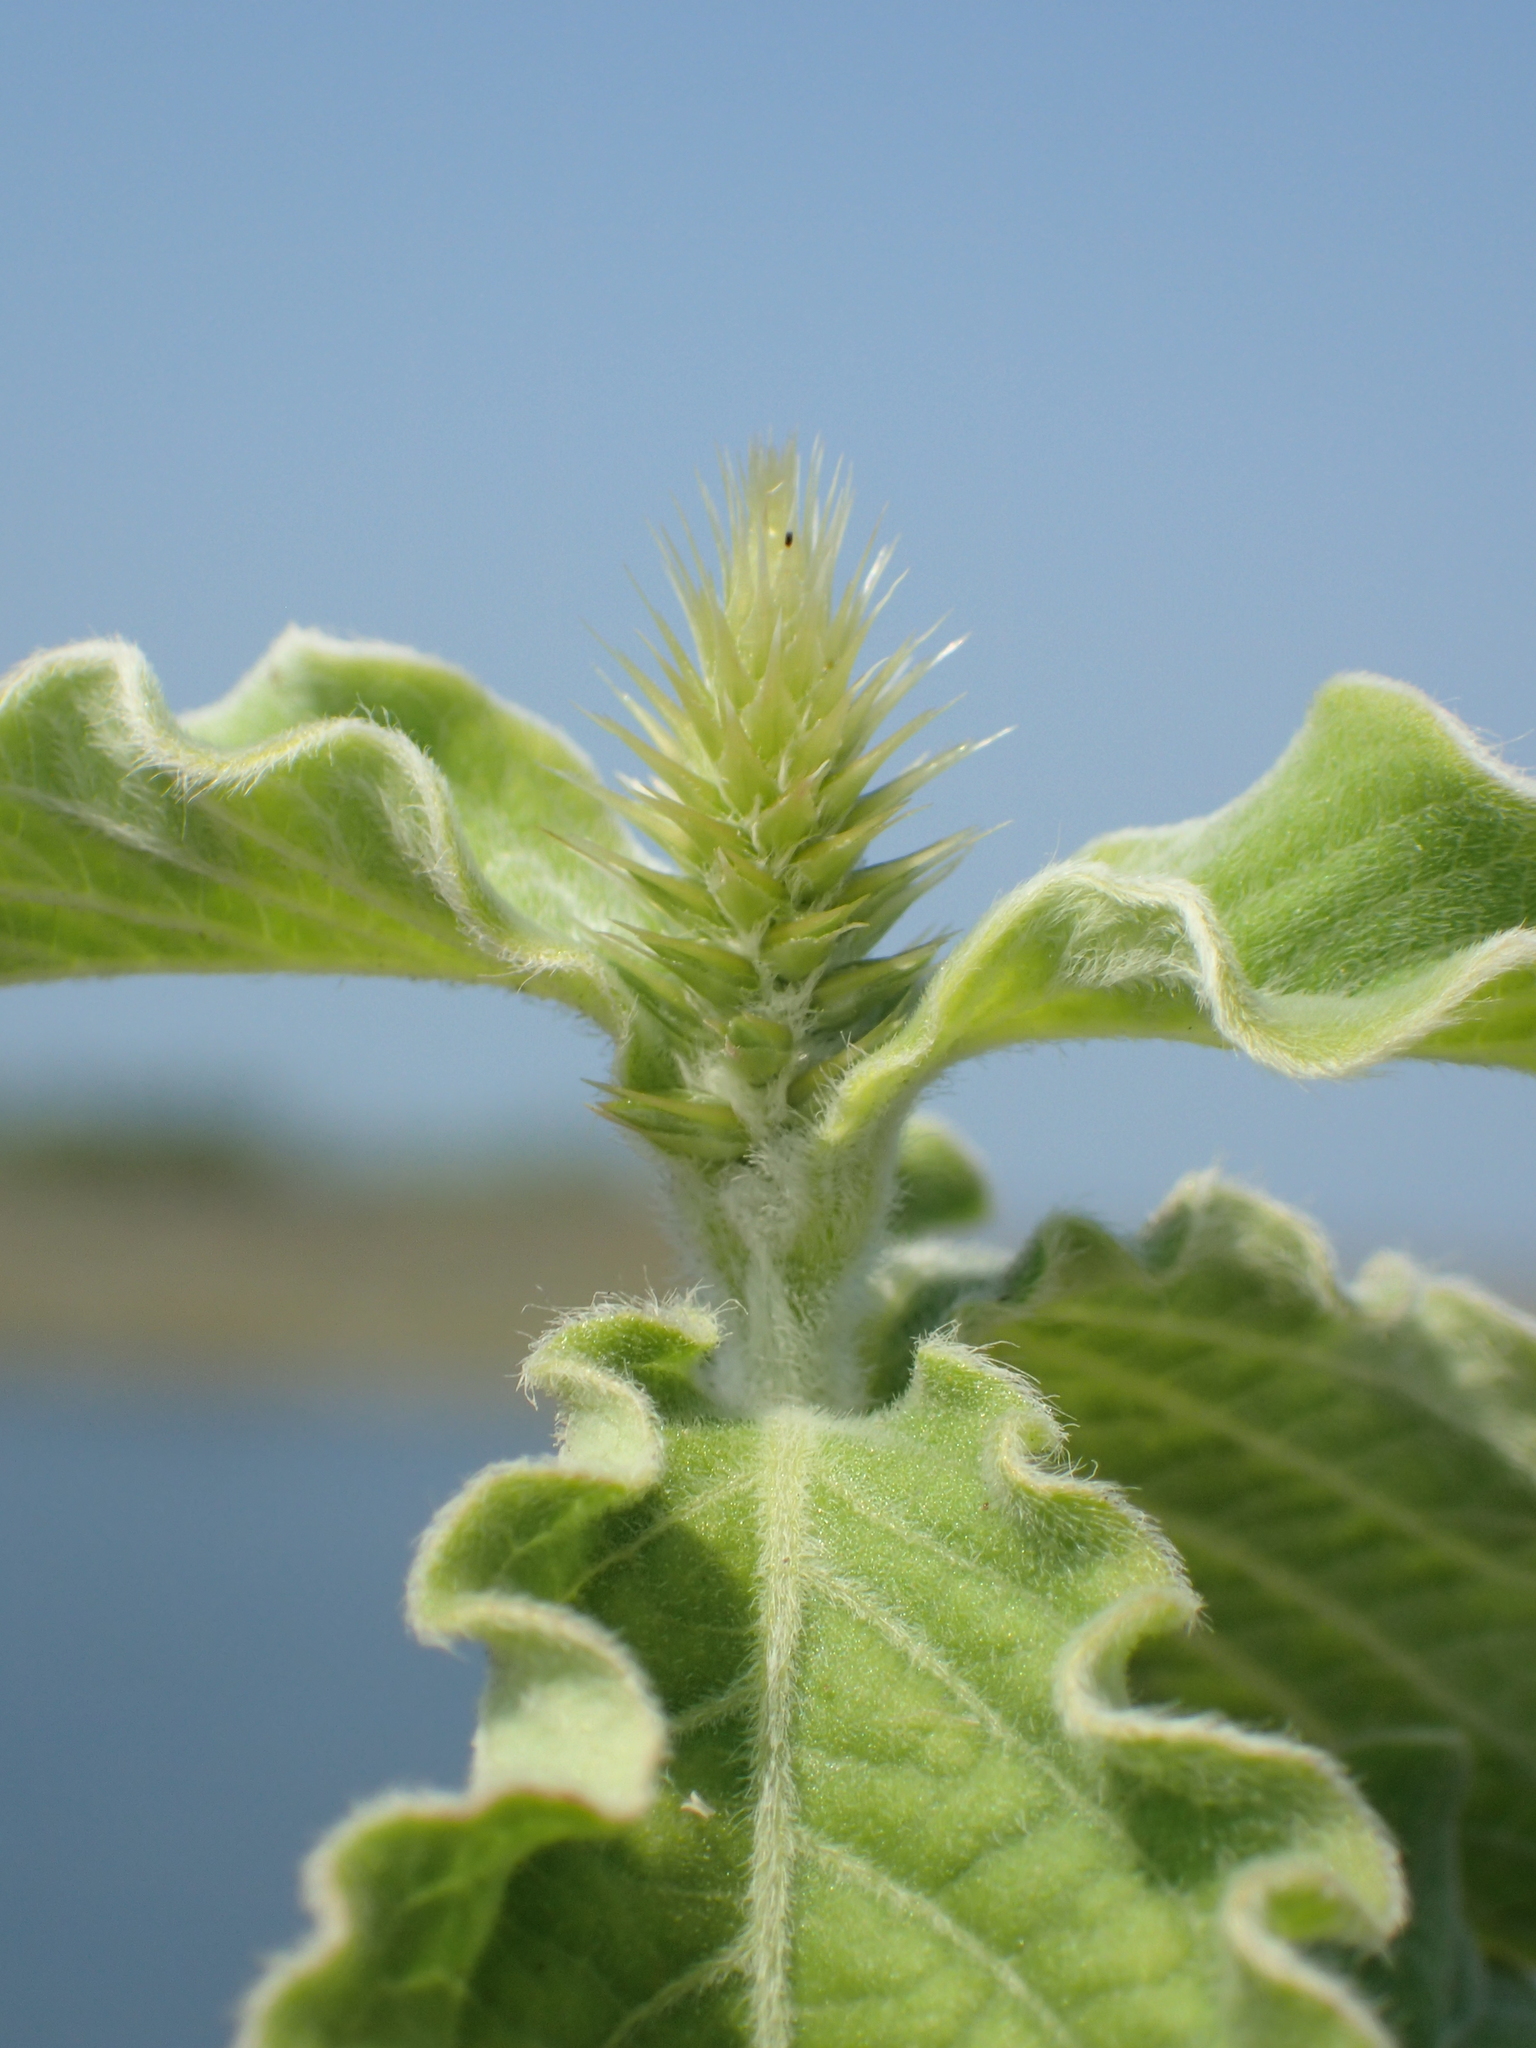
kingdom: Plantae
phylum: Tracheophyta
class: Magnoliopsida
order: Caryophyllales
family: Amaranthaceae
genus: Achyranthes
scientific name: Achyranthes aspera
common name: Devil's horsewhip
